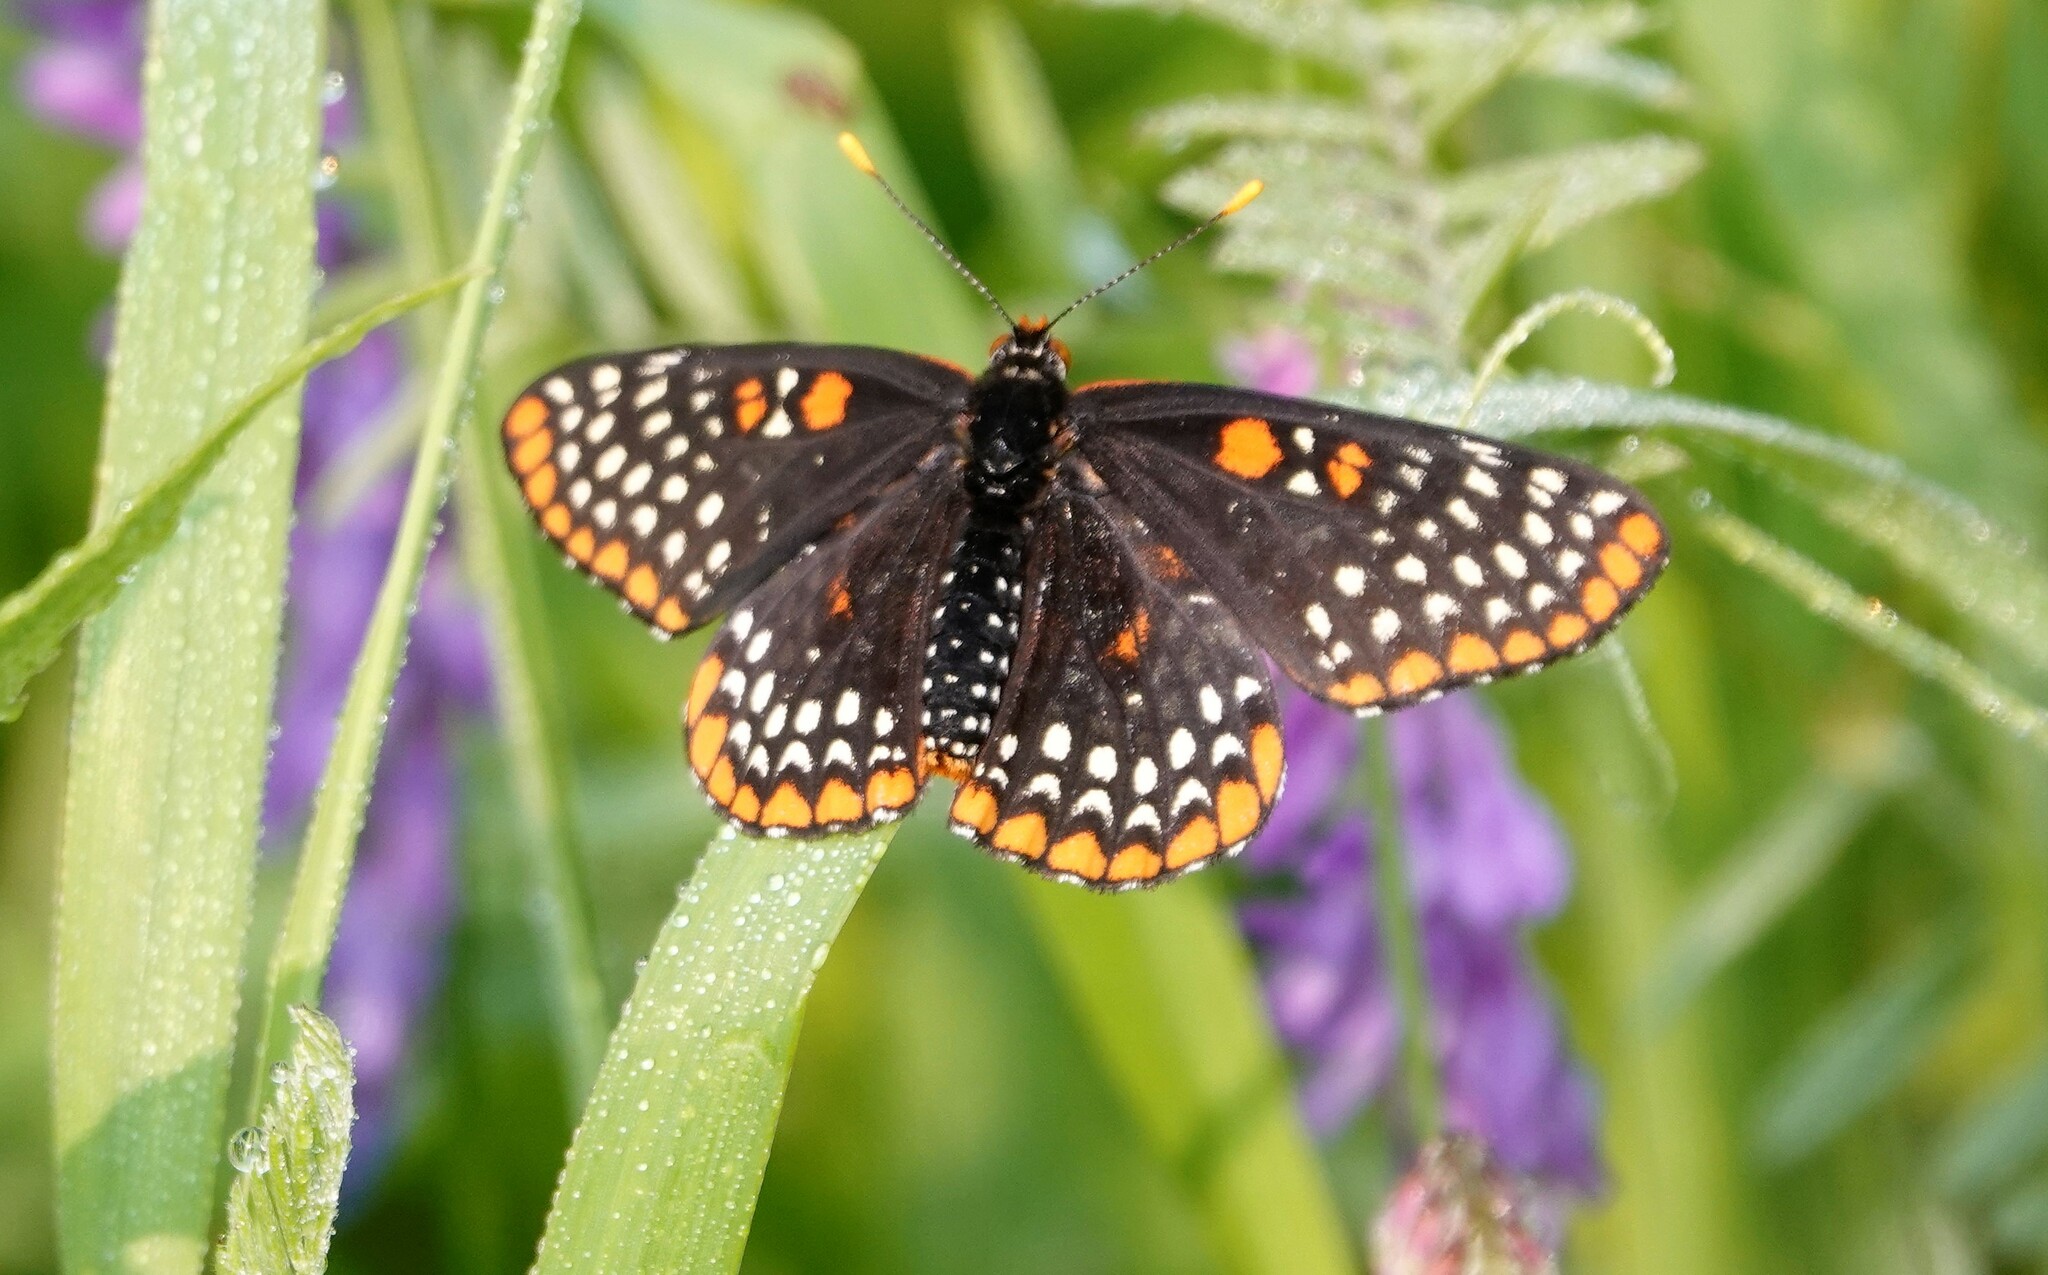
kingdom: Animalia
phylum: Arthropoda
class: Insecta
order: Lepidoptera
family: Nymphalidae
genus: Euphydryas
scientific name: Euphydryas phaeton
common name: Baltimore checkerspot
